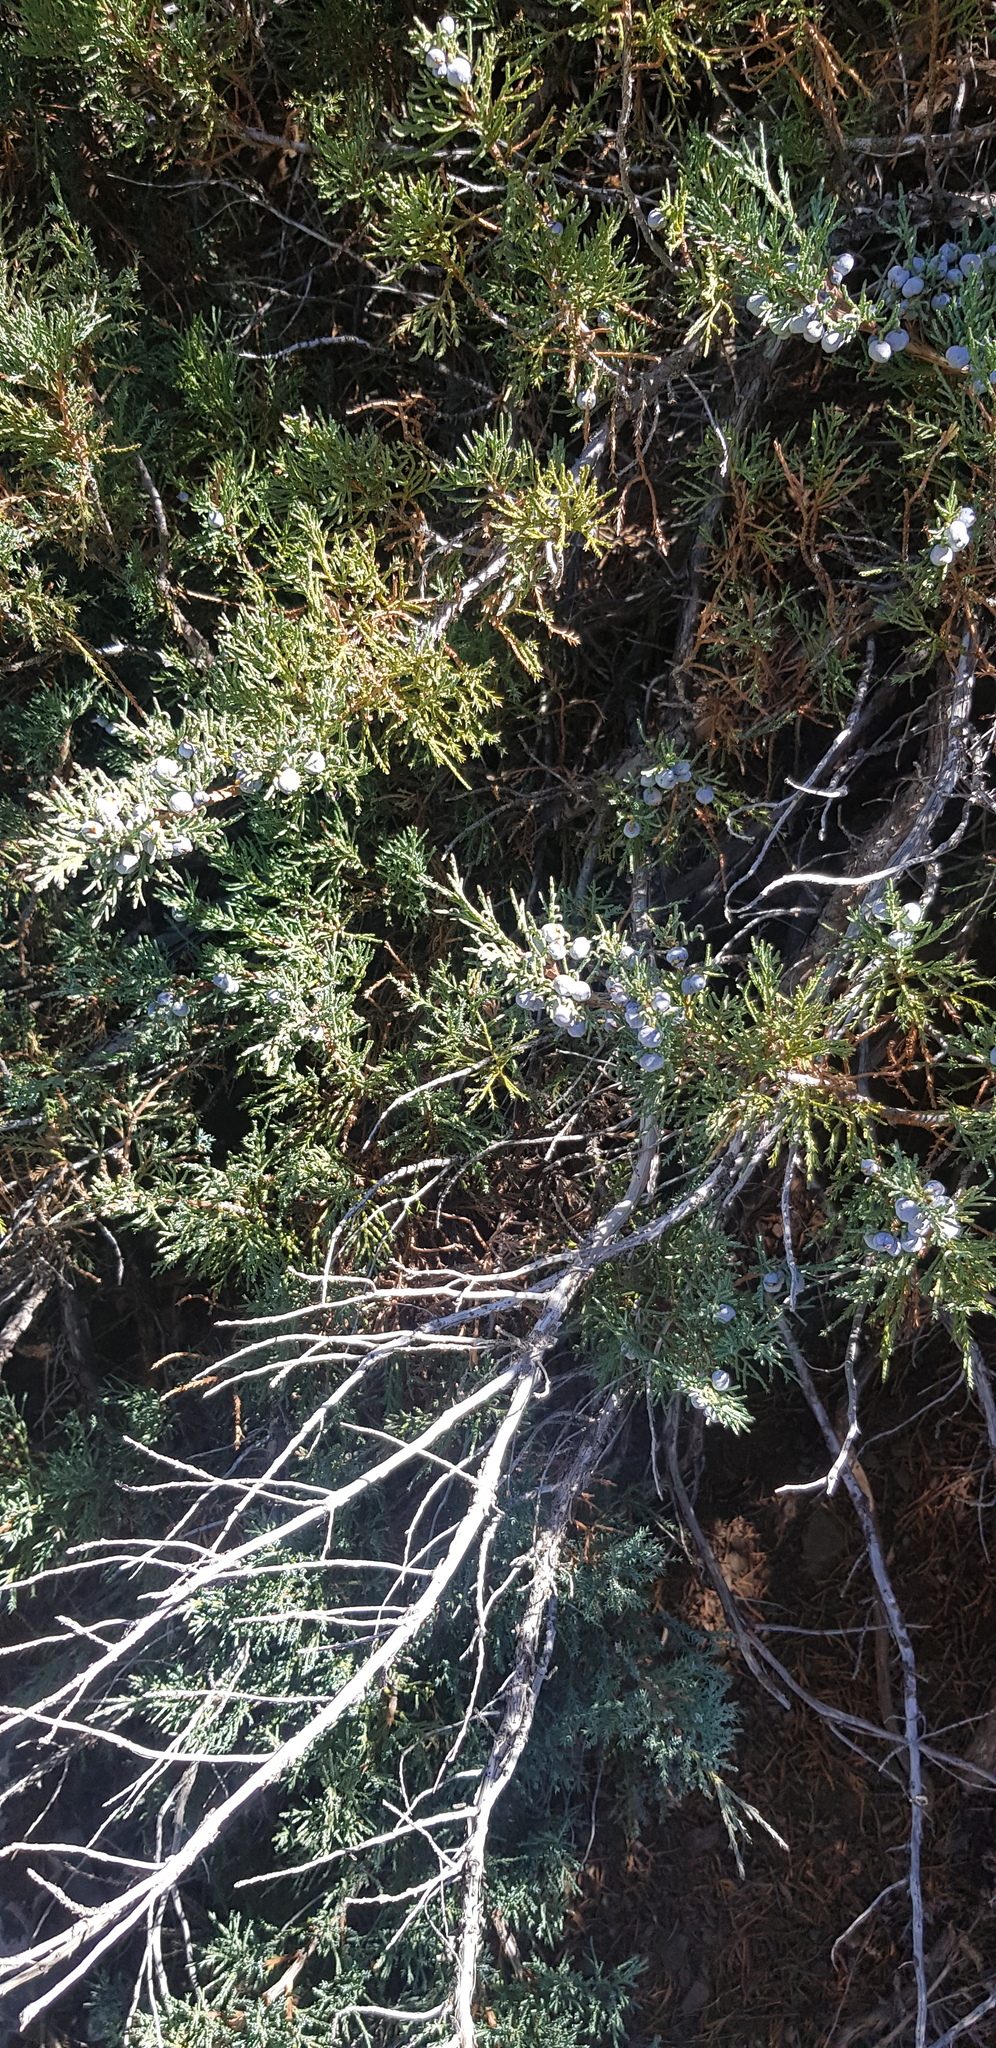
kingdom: Plantae
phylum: Tracheophyta
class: Pinopsida
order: Pinales
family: Cupressaceae
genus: Juniperus
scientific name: Juniperus sabina
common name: Savin
